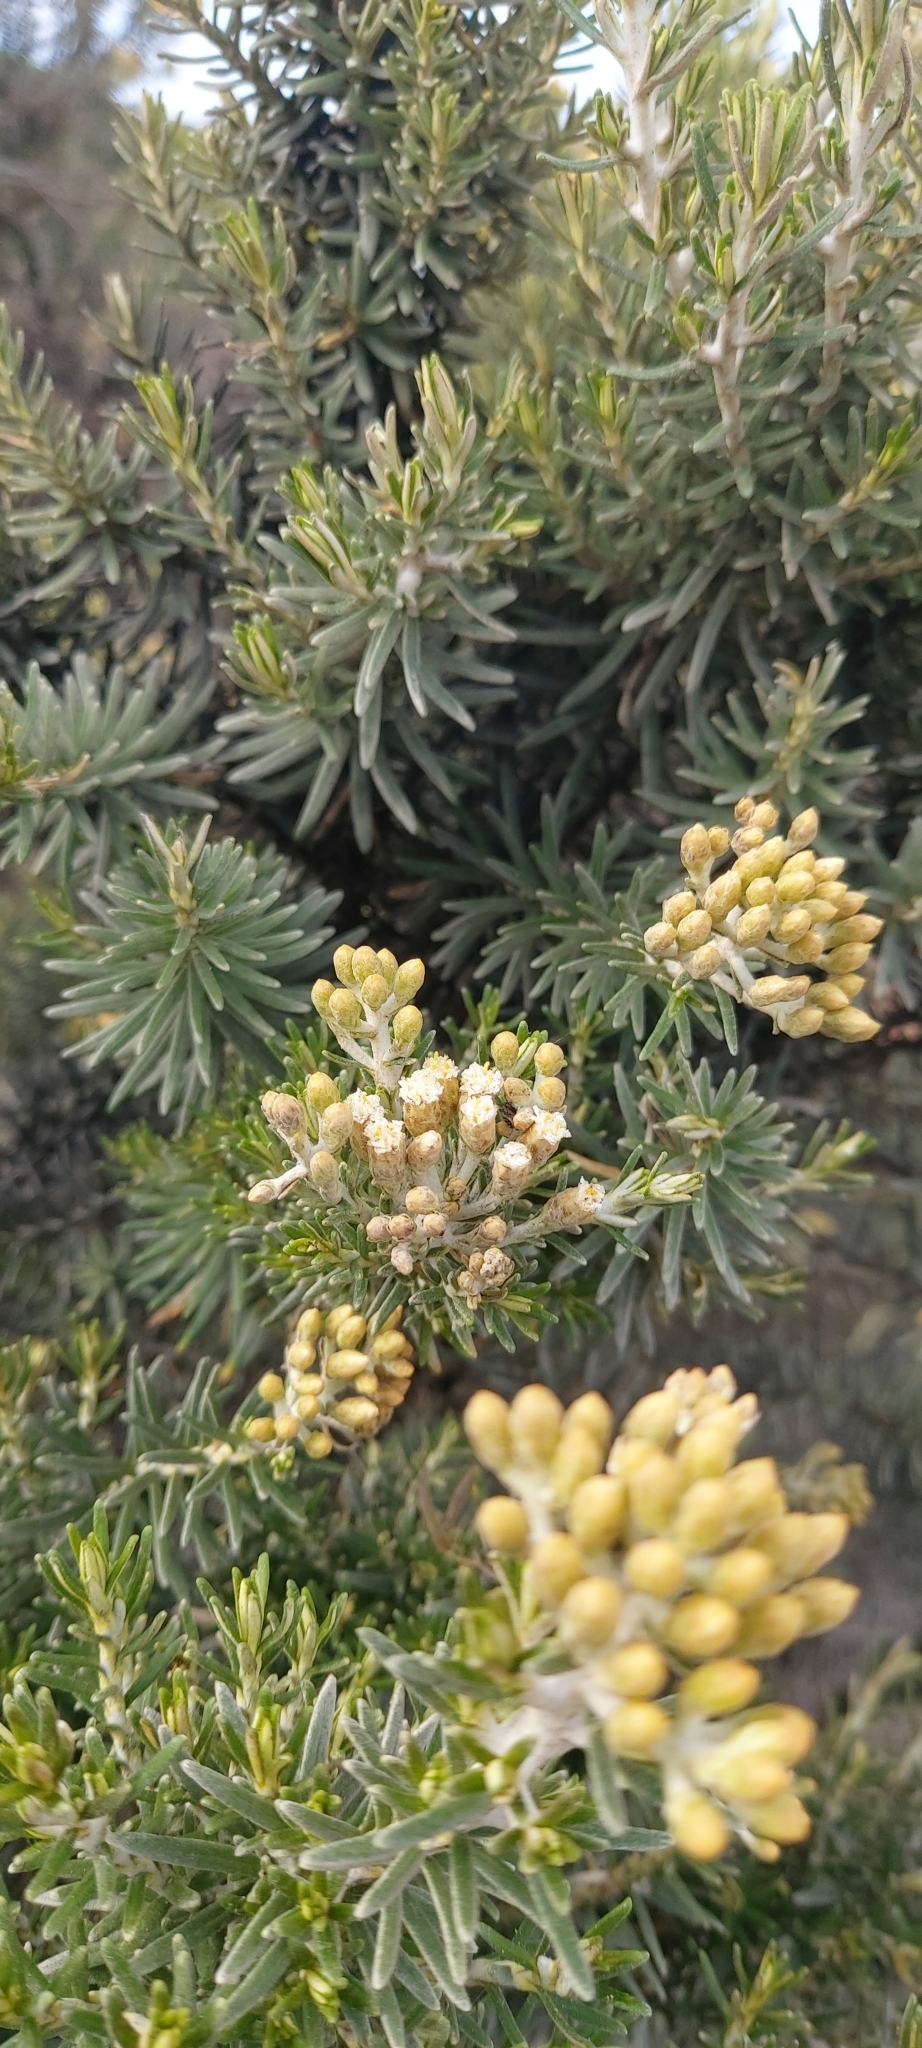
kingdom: Plantae
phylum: Tracheophyta
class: Magnoliopsida
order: Asterales
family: Asteraceae
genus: Ozothamnus
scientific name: Ozothamnus cinereus
